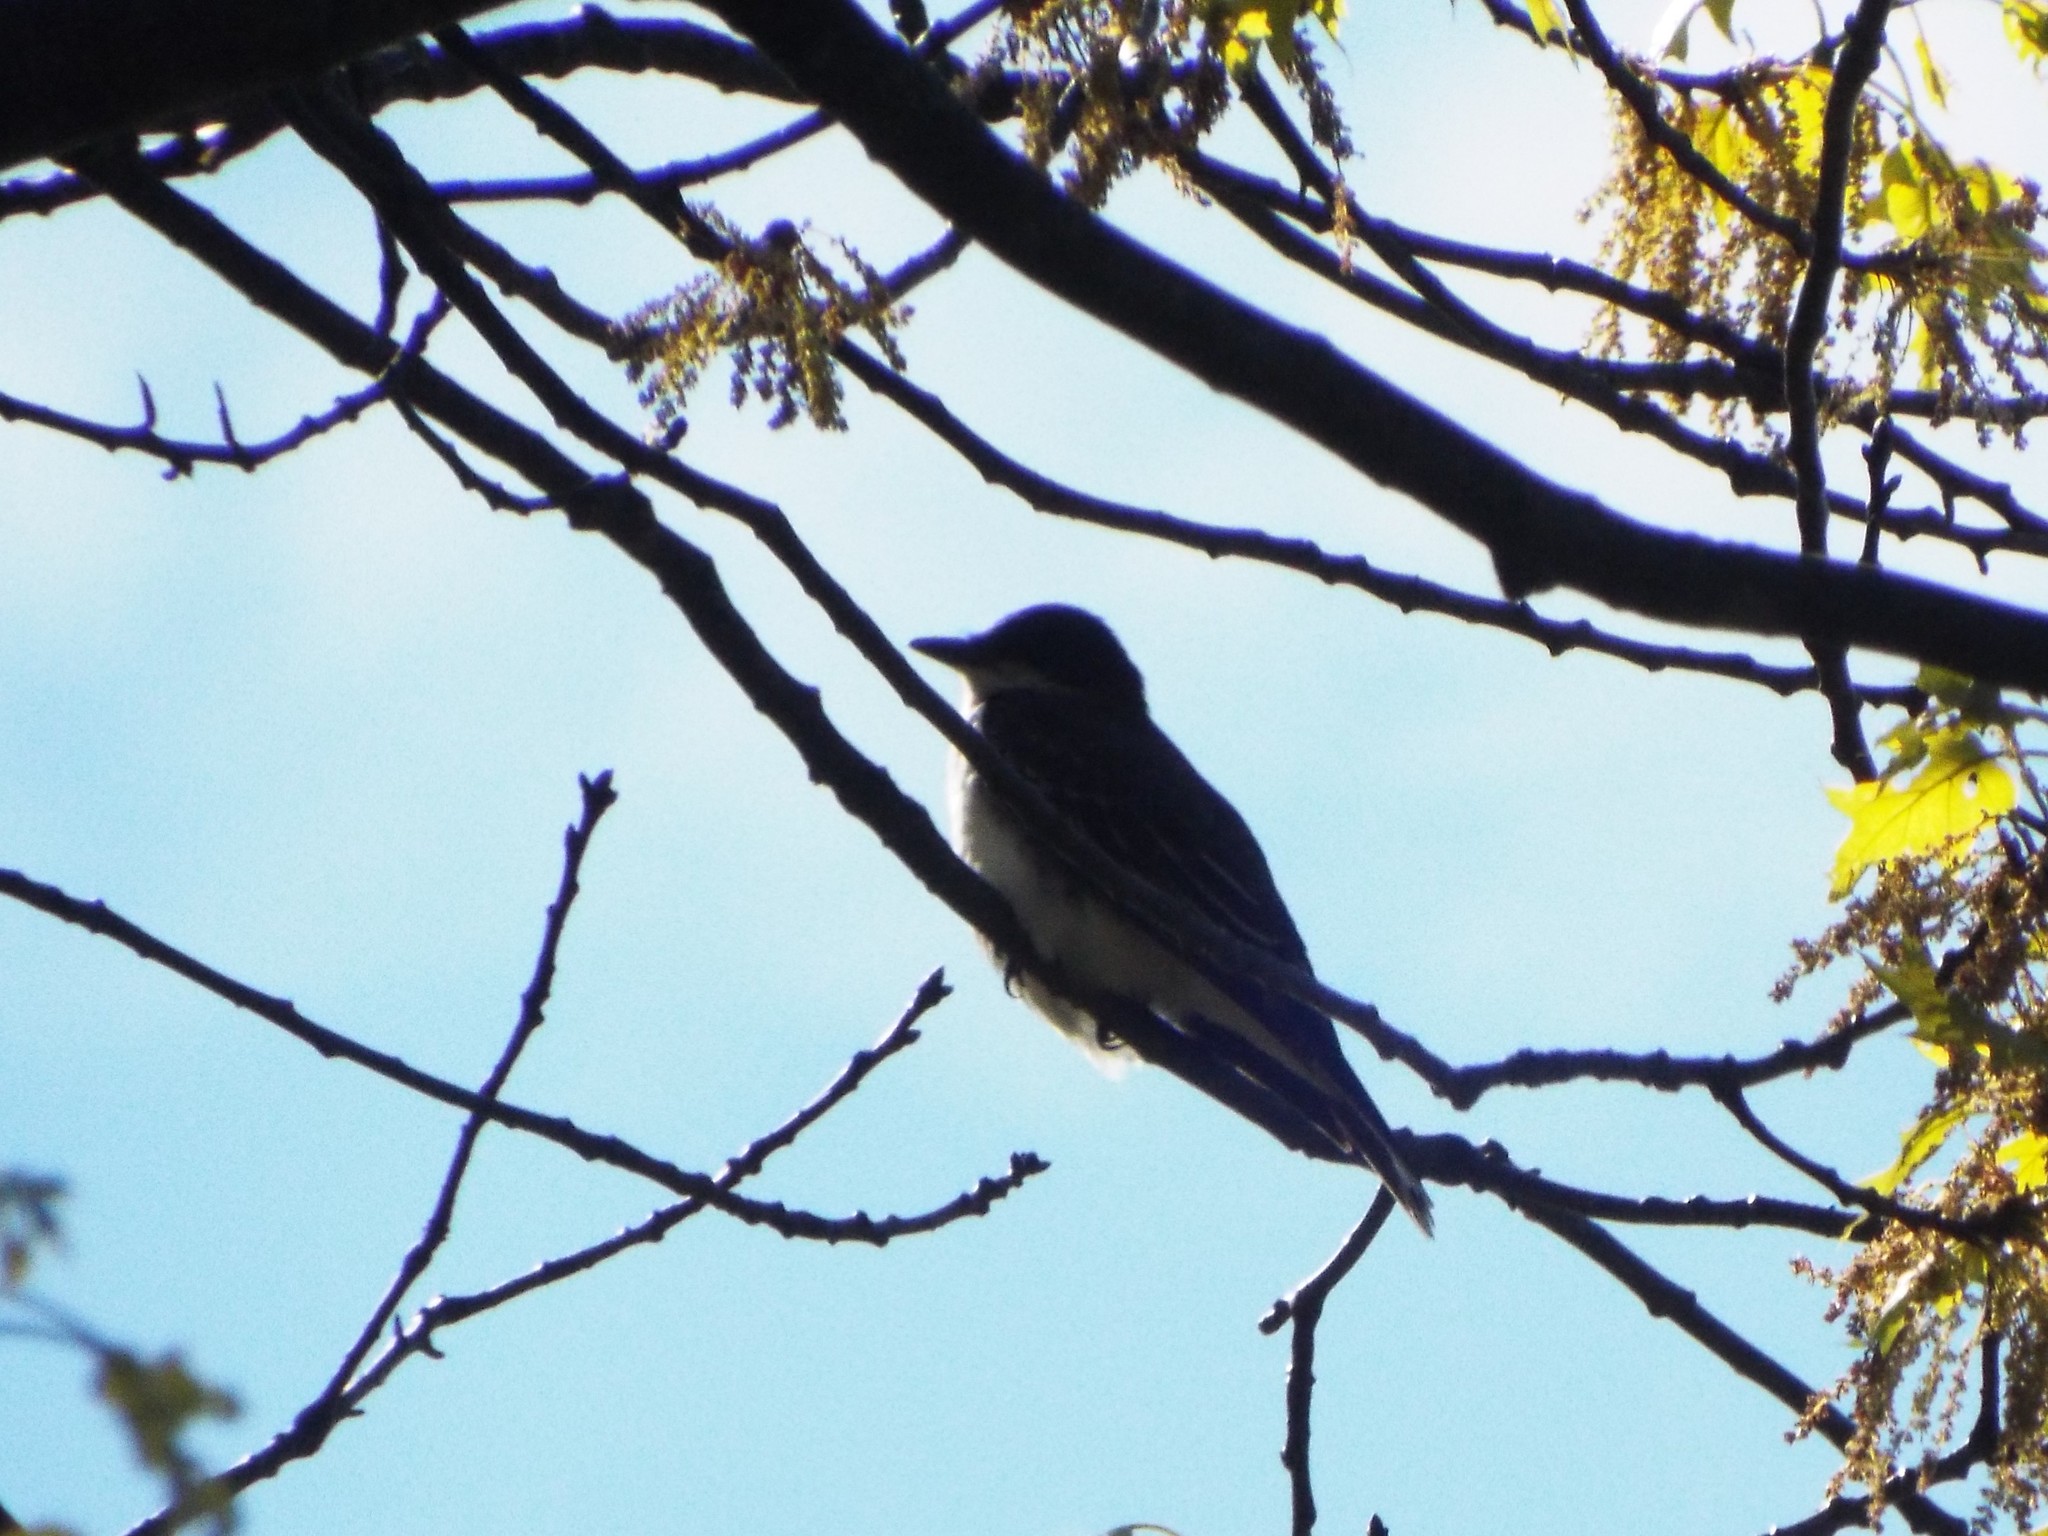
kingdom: Animalia
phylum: Chordata
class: Aves
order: Passeriformes
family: Tyrannidae
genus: Tyrannus
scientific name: Tyrannus tyrannus
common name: Eastern kingbird
